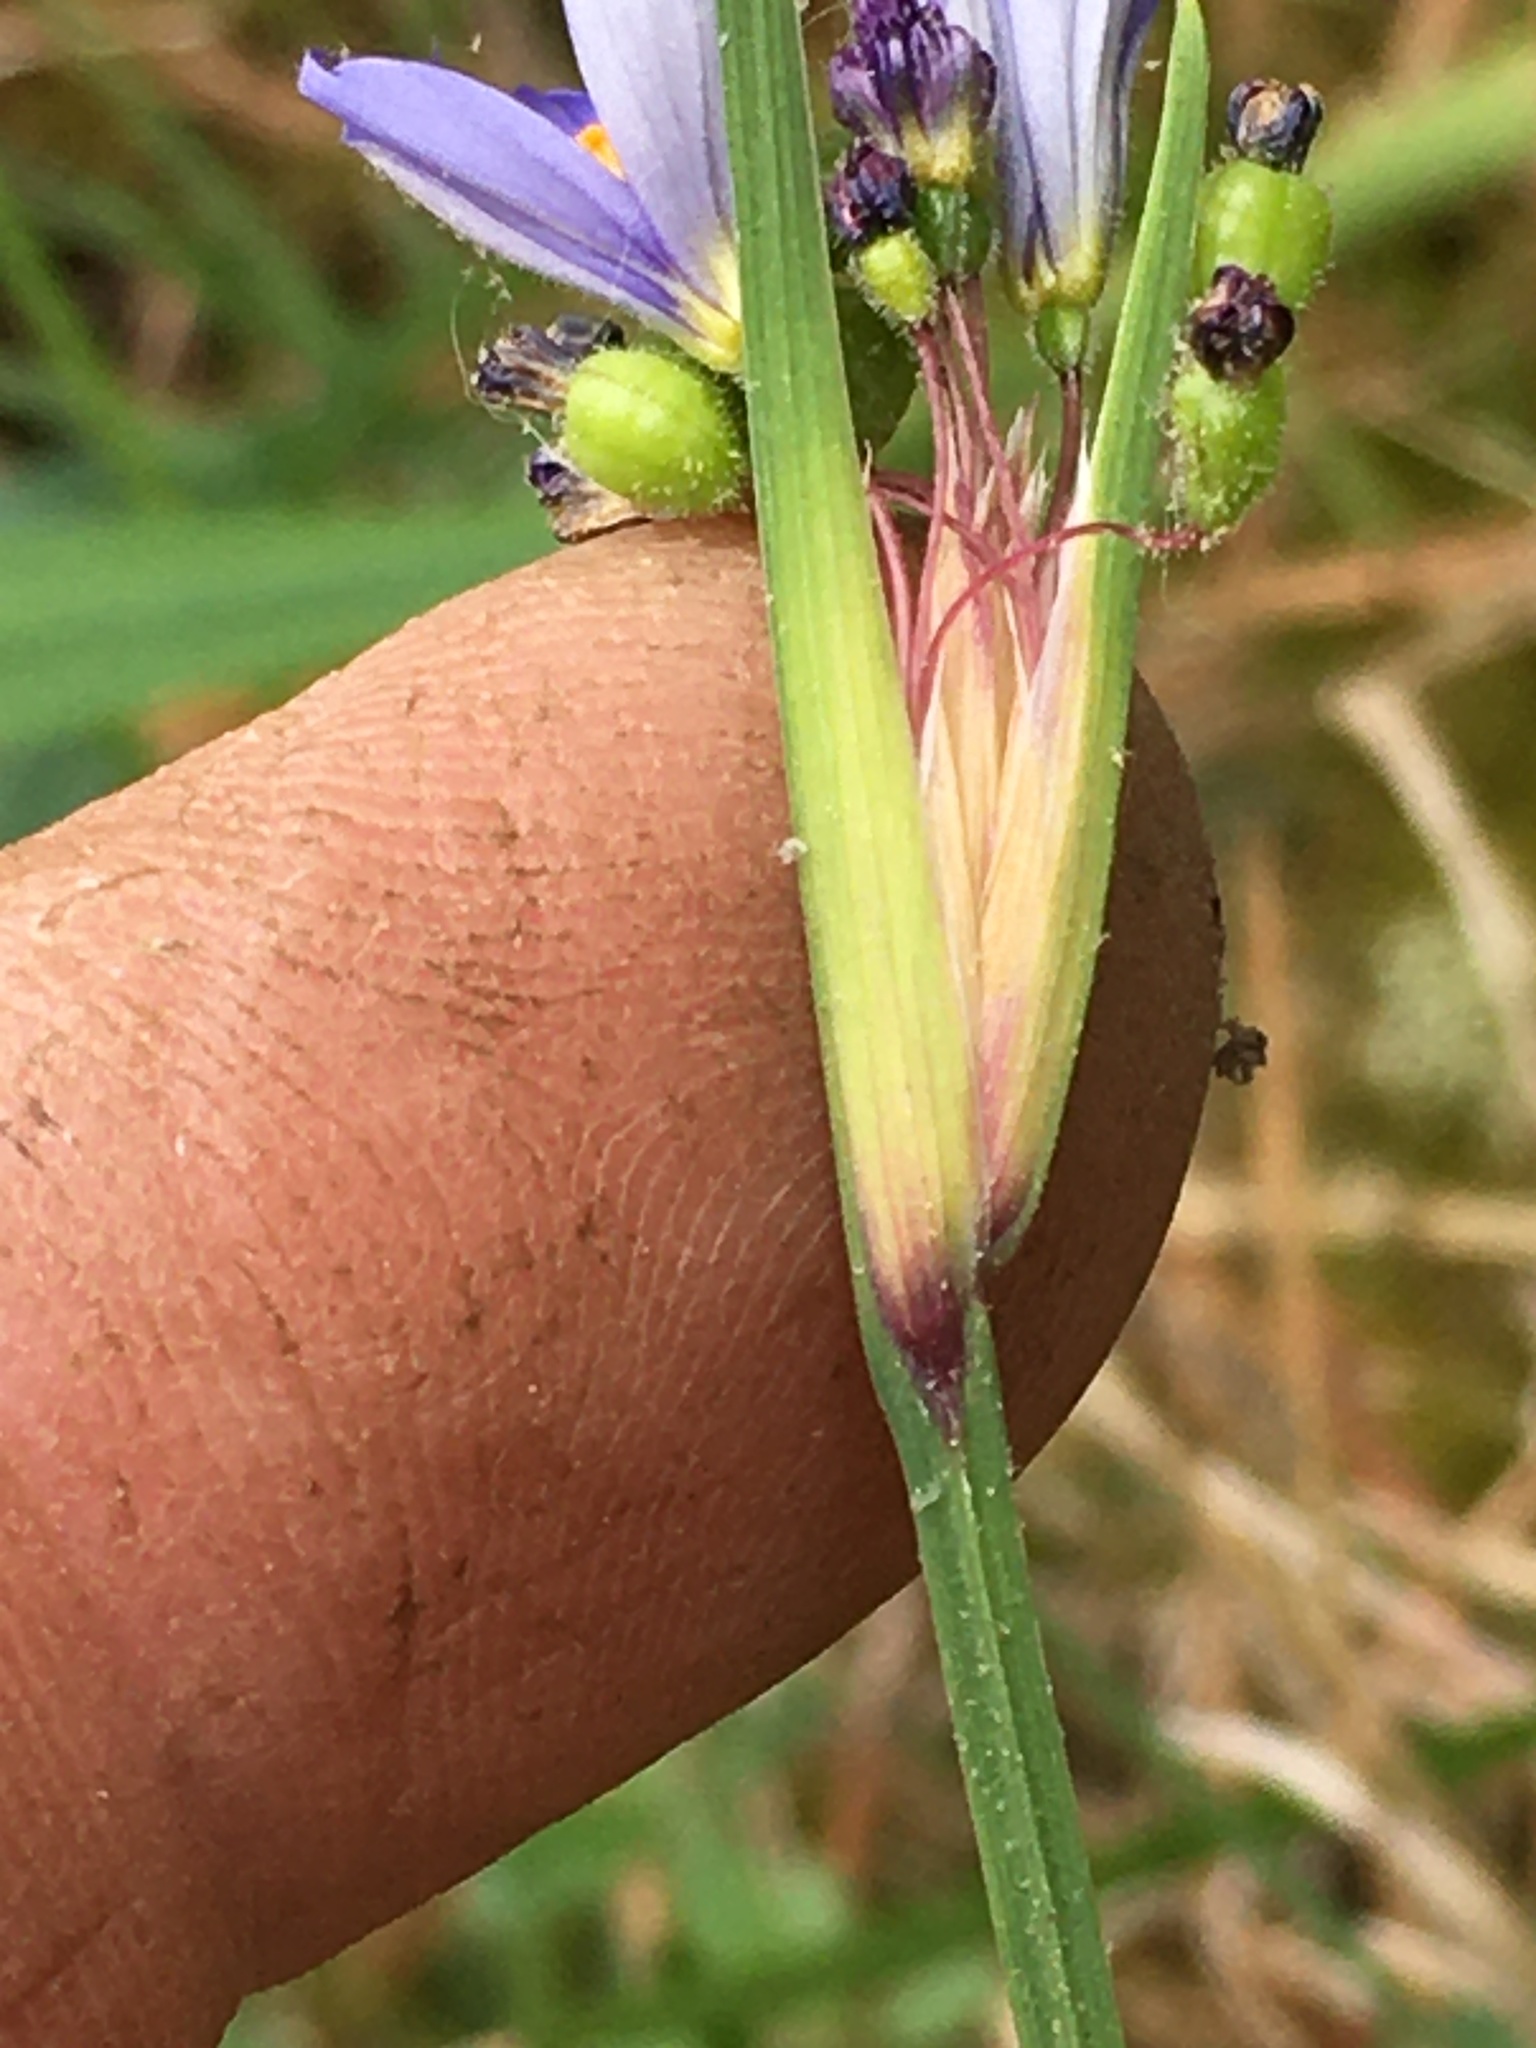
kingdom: Plantae
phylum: Tracheophyta
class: Liliopsida
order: Asparagales
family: Iridaceae
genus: Sisyrinchium
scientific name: Sisyrinchium mucronatum
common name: Eastern blue-eyed-grass
